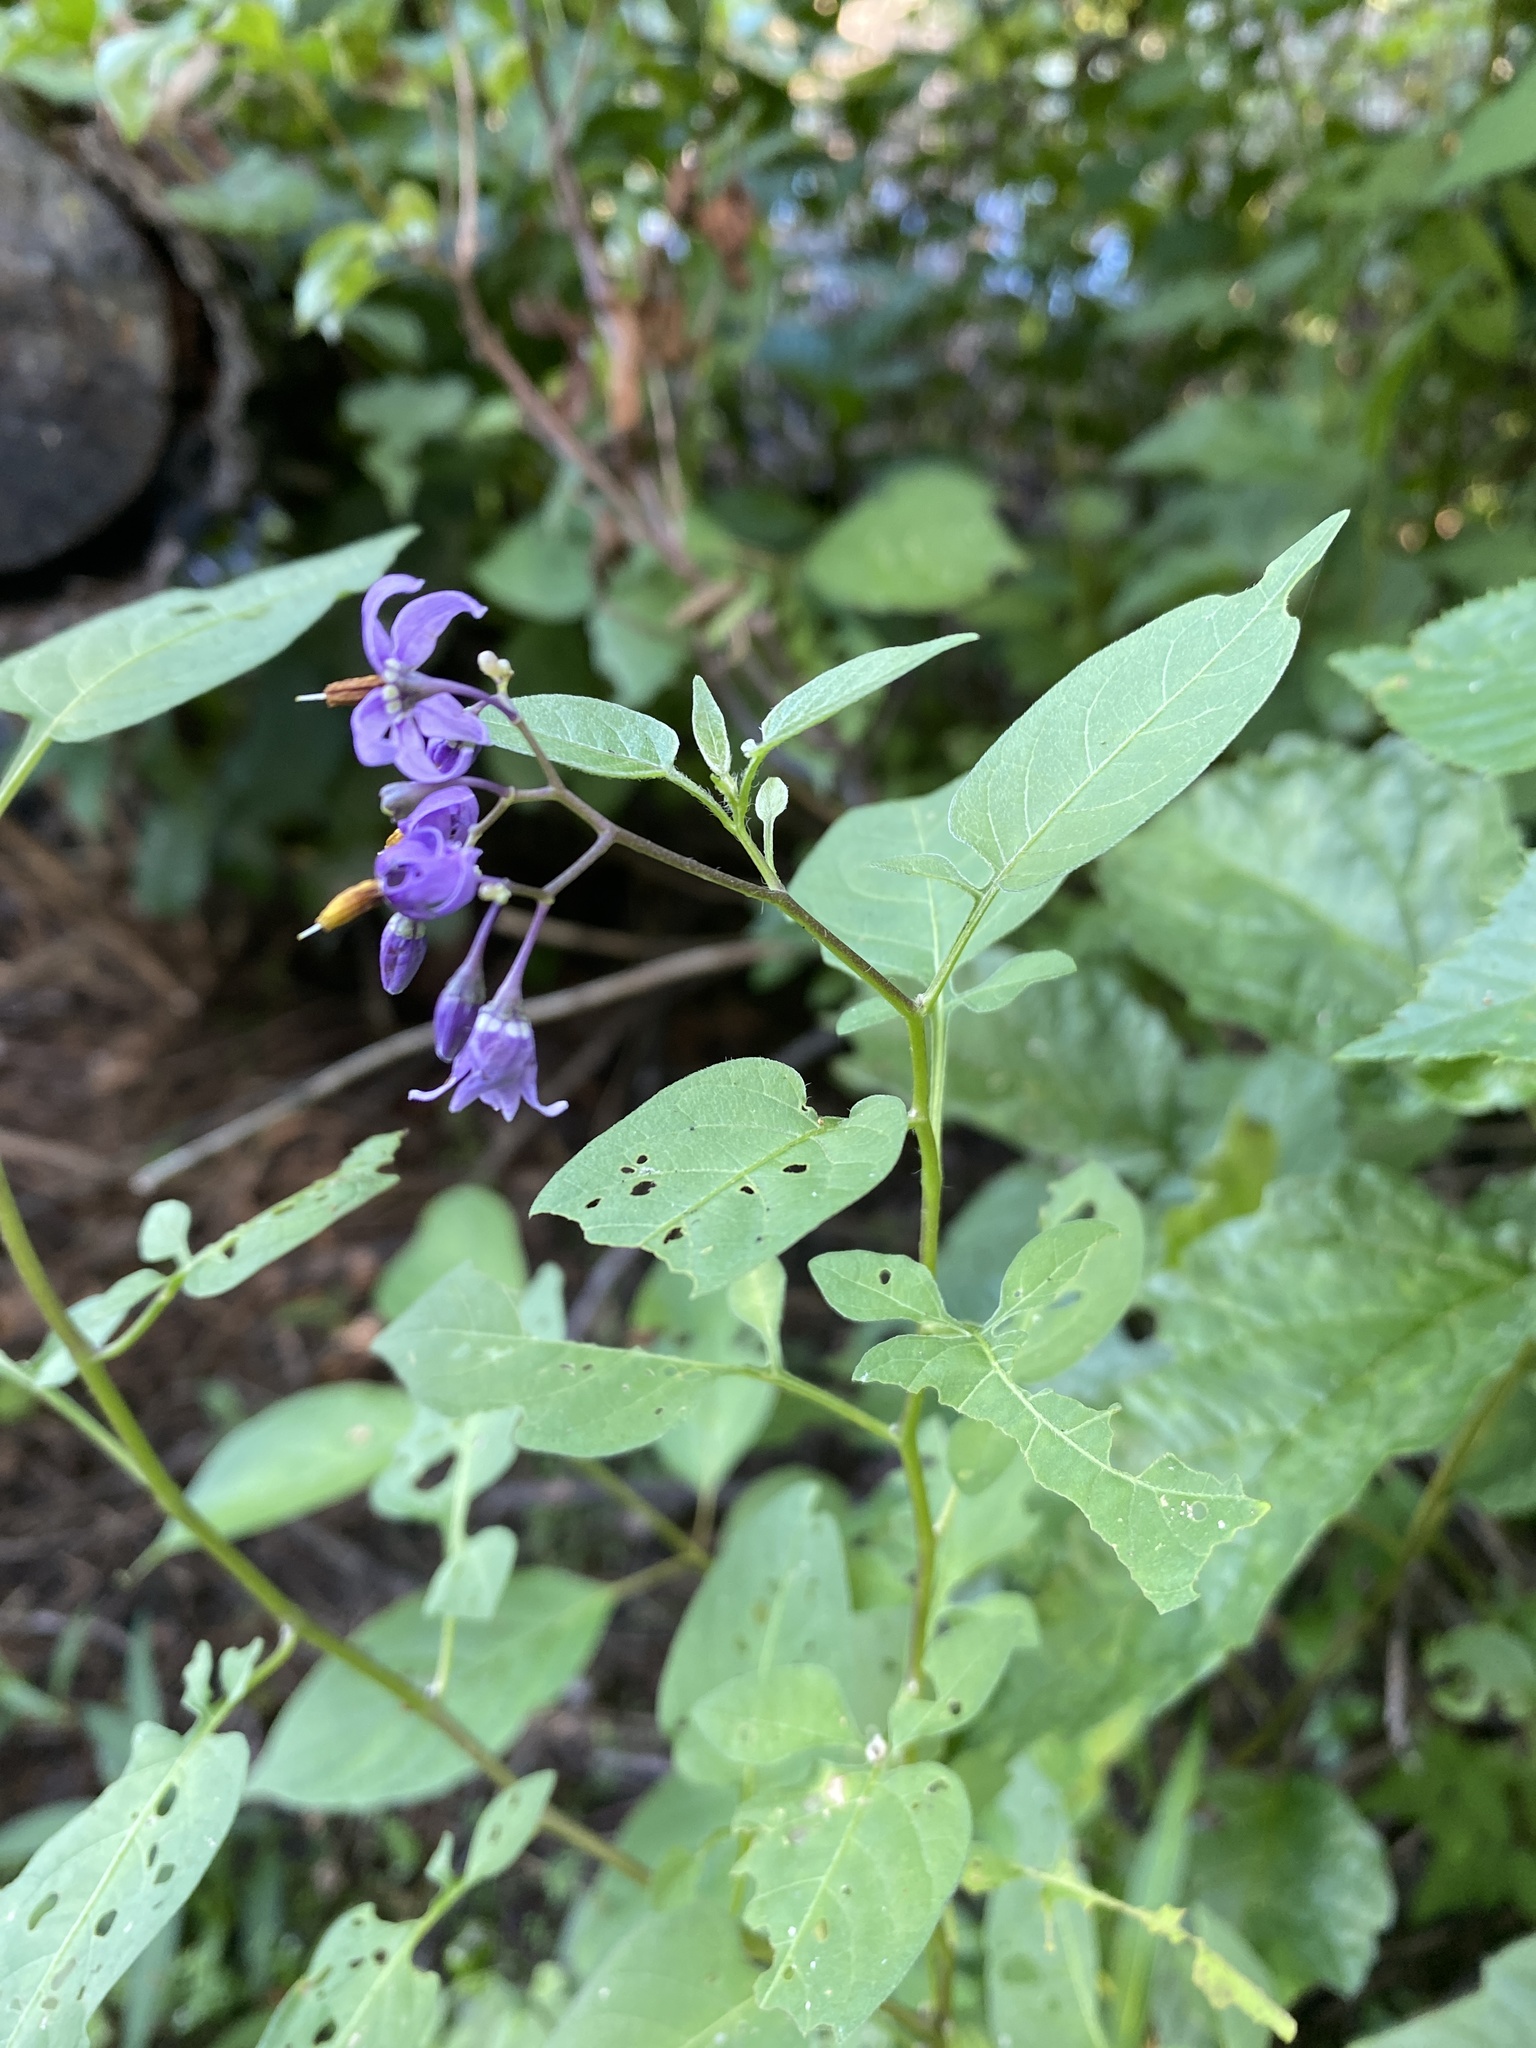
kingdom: Plantae
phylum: Tracheophyta
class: Magnoliopsida
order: Solanales
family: Solanaceae
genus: Solanum
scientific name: Solanum dulcamara
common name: Climbing nightshade
